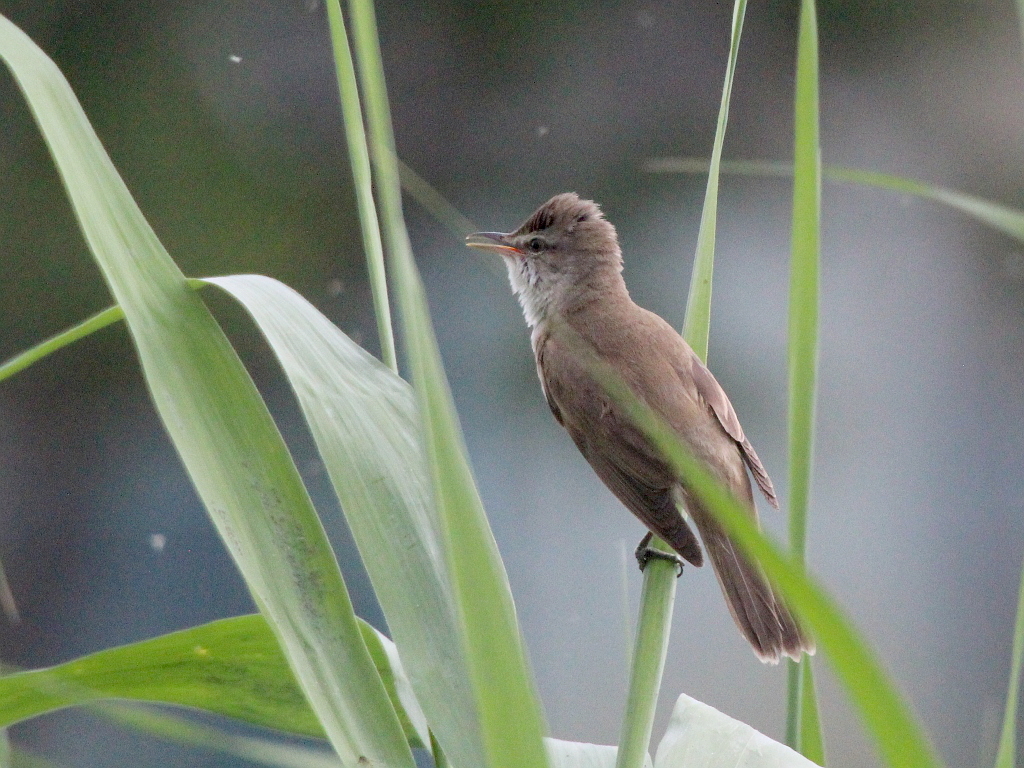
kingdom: Animalia
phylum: Chordata
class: Aves
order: Passeriformes
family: Acrocephalidae
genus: Acrocephalus
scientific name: Acrocephalus arundinaceus
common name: Great reed warbler
